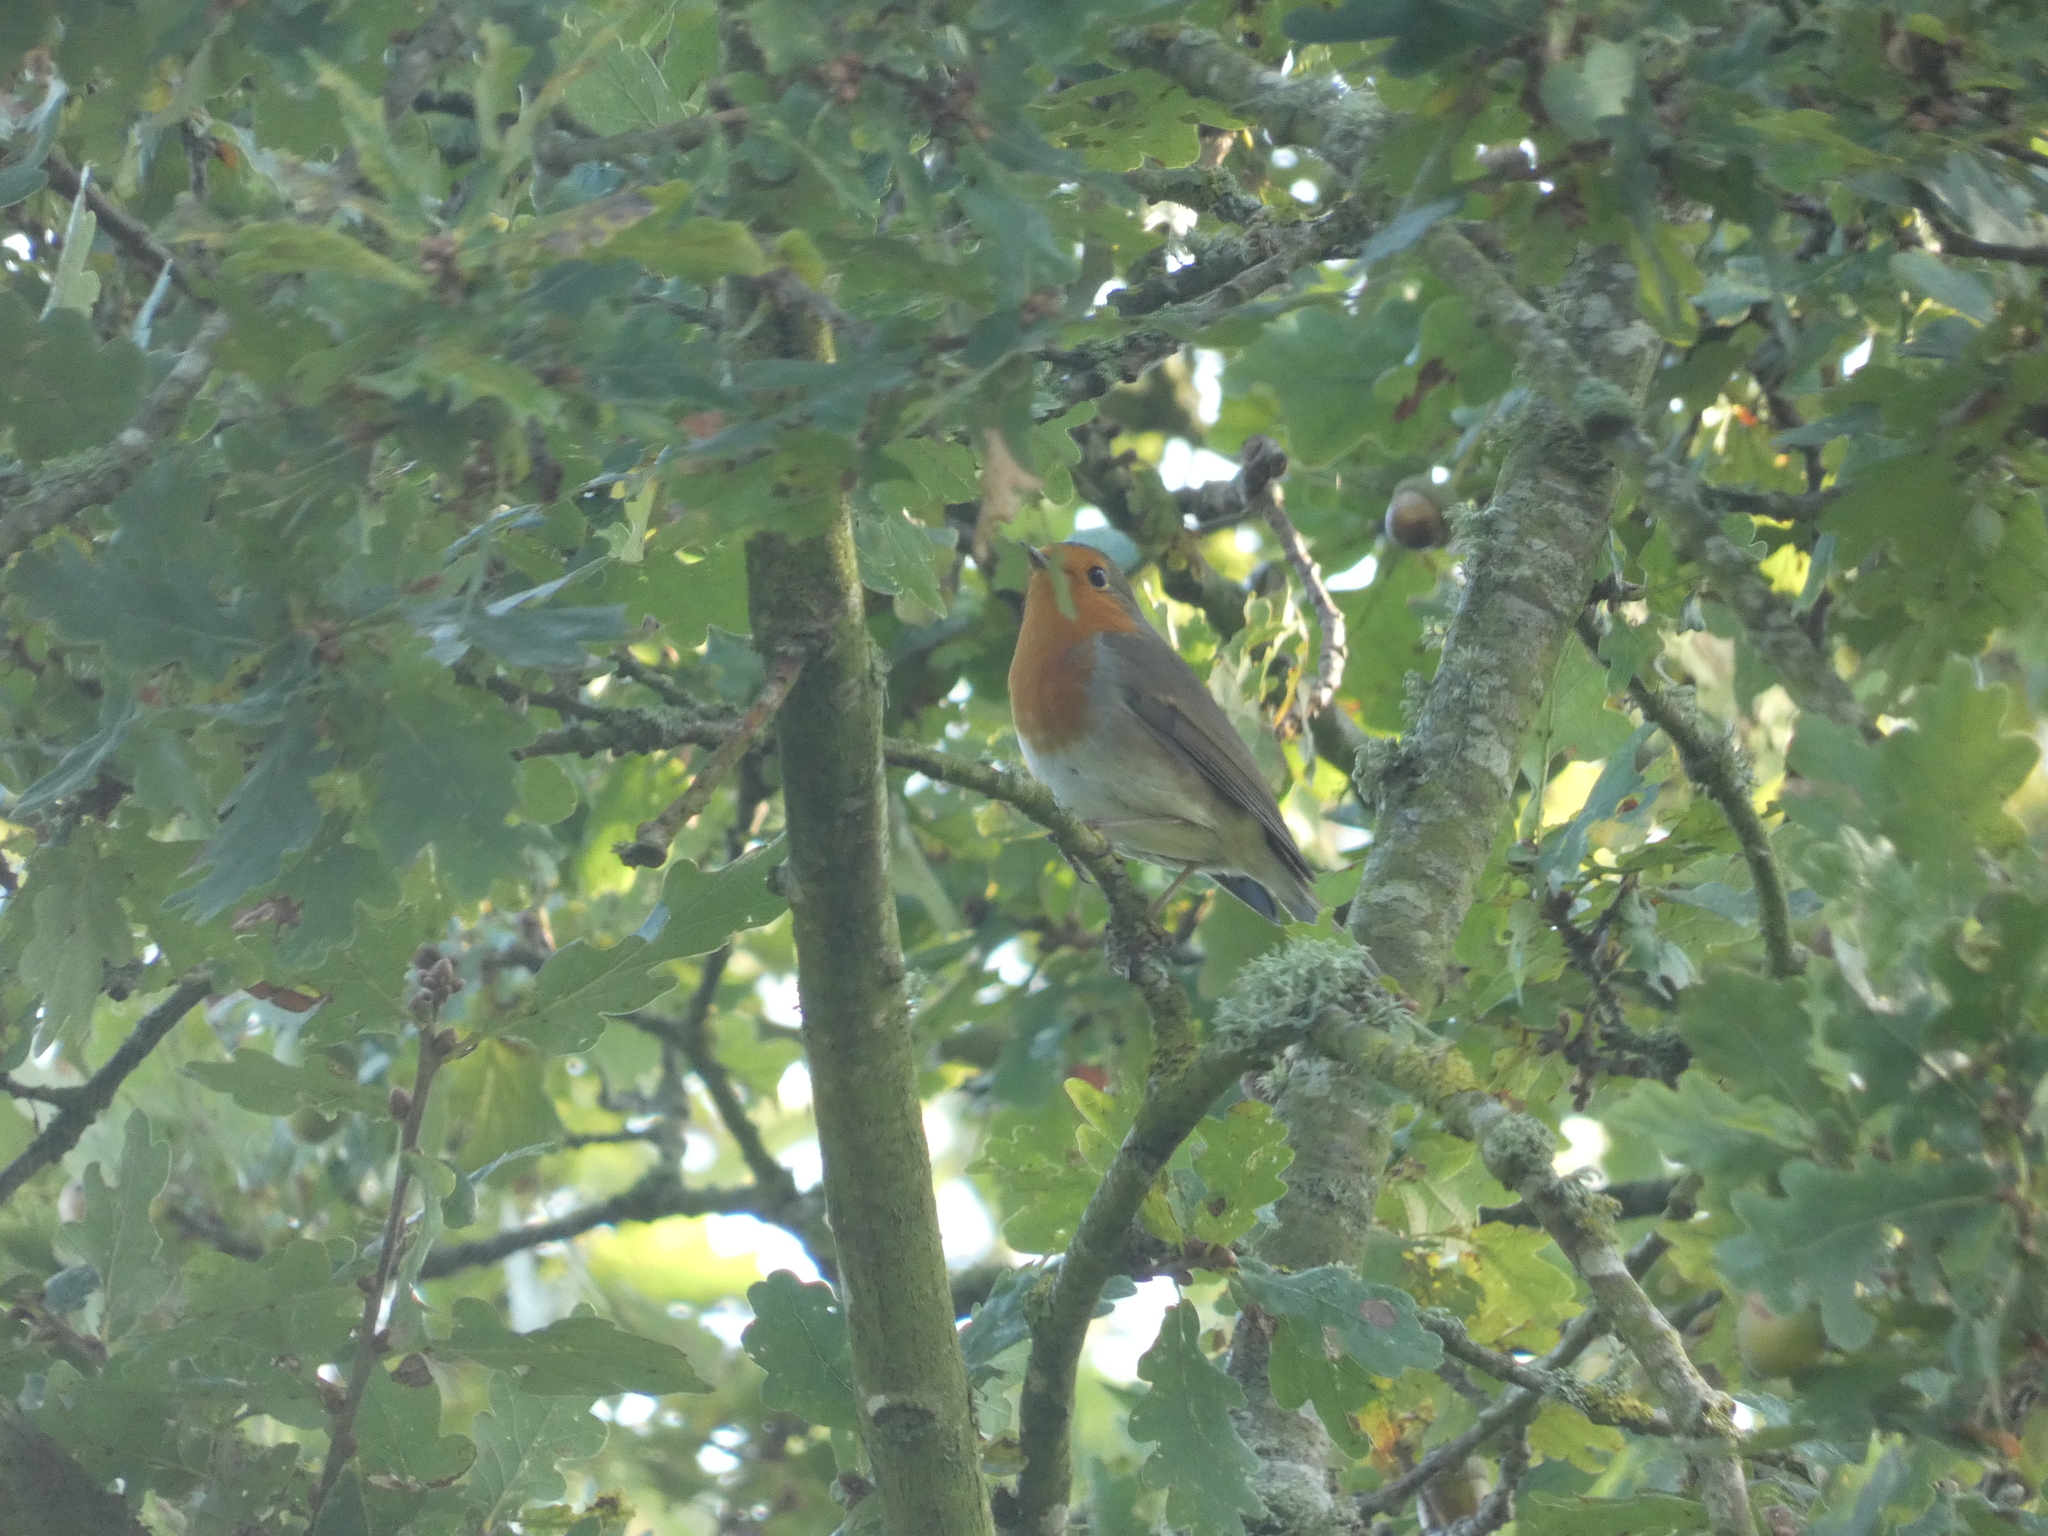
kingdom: Animalia
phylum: Chordata
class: Aves
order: Passeriformes
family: Muscicapidae
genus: Erithacus
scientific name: Erithacus rubecula
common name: European robin
